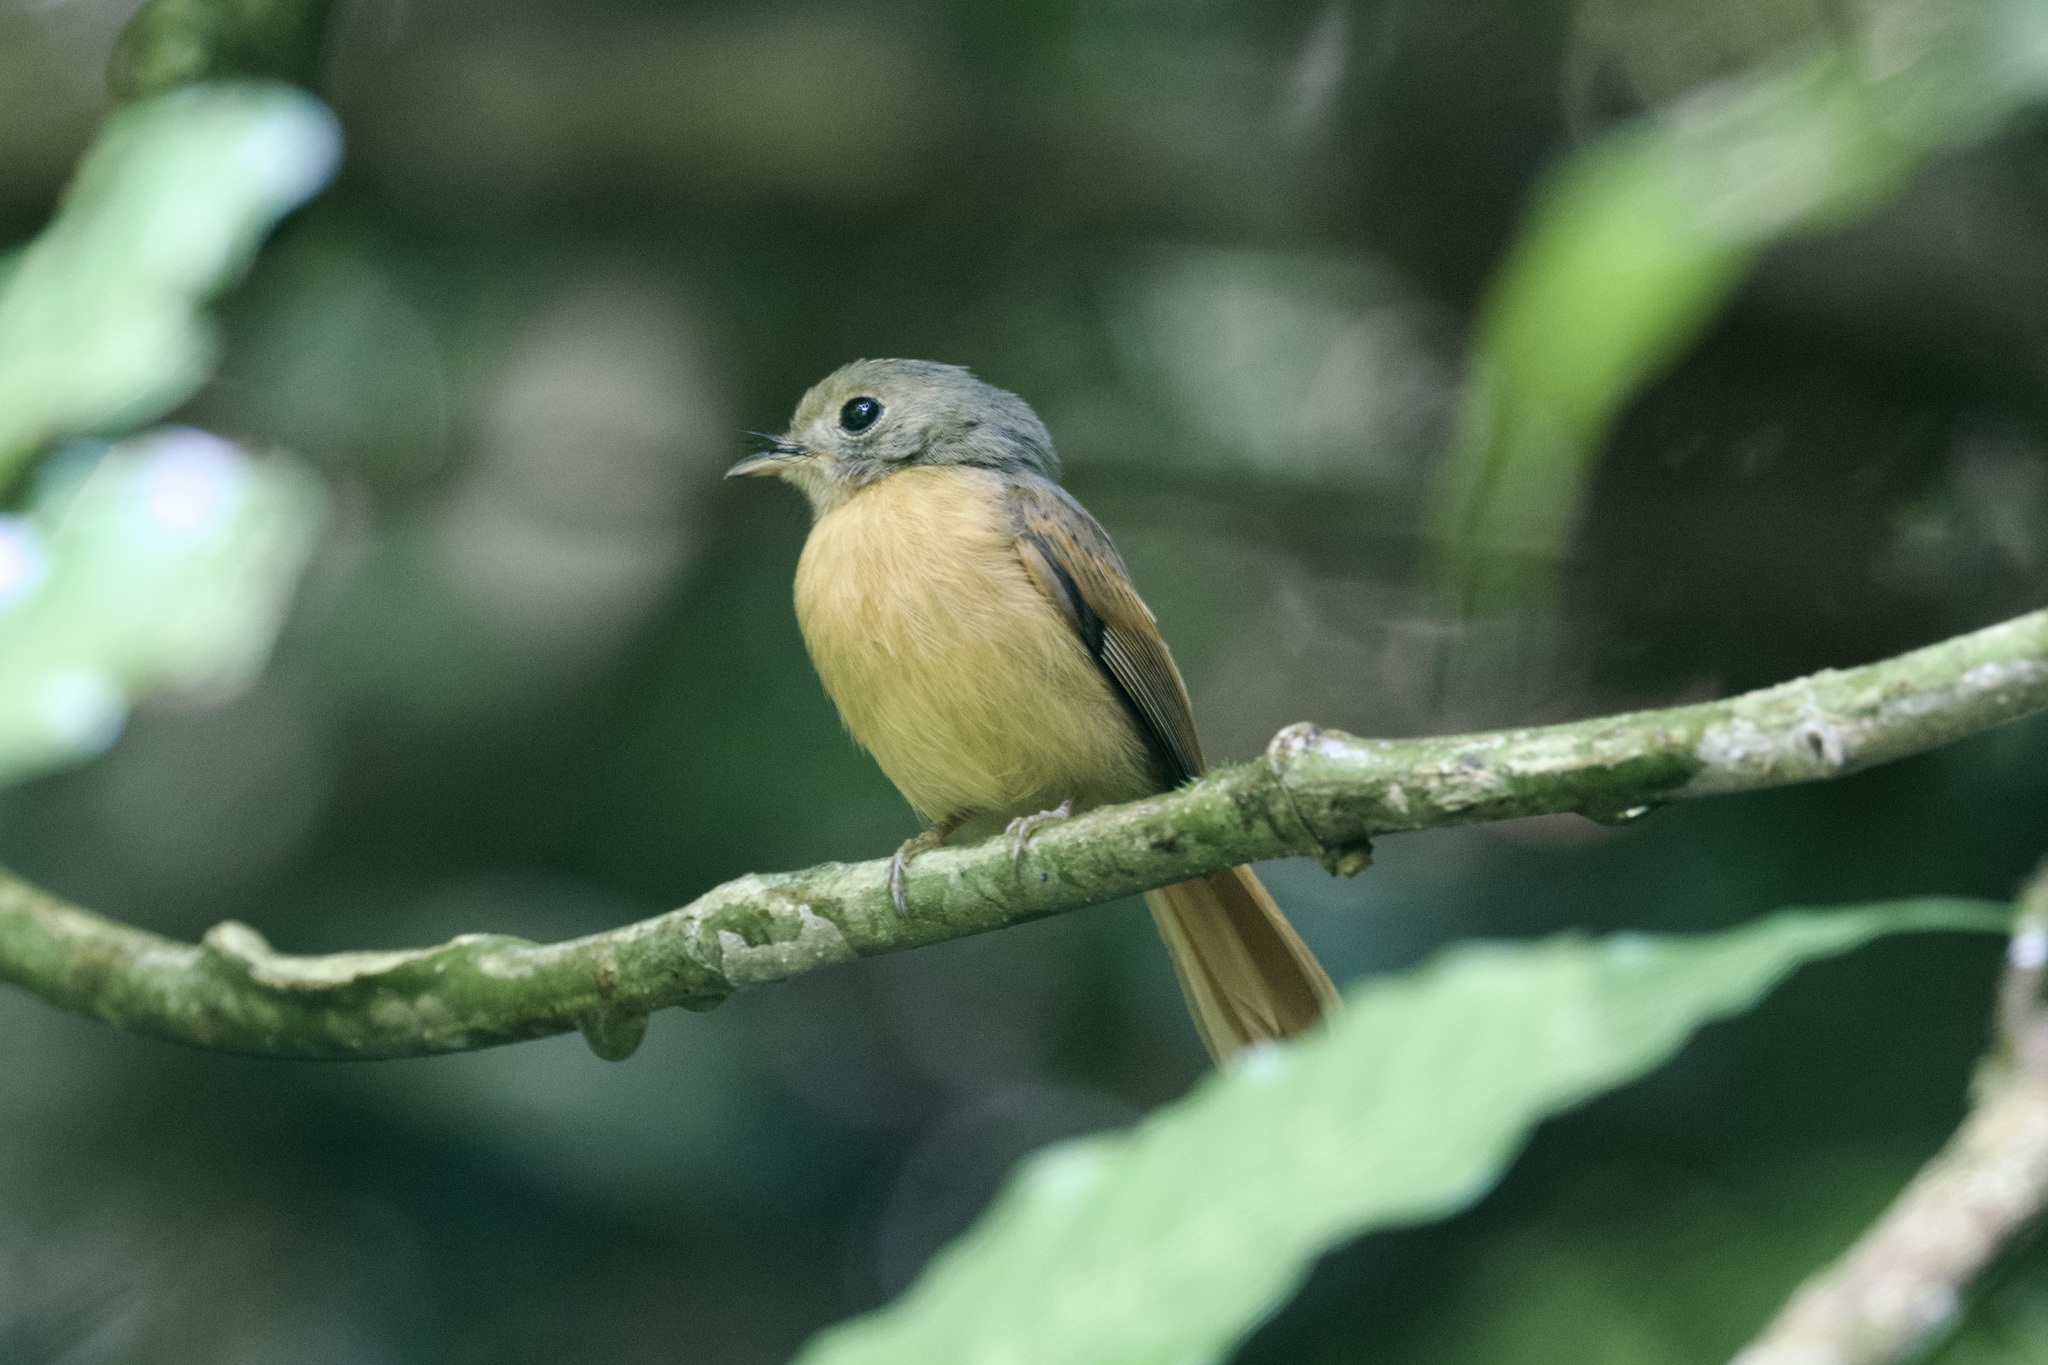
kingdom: Animalia
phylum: Chordata
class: Aves
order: Passeriformes
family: Tyrannidae
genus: Terenotriccus
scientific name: Terenotriccus erythrurus
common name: Ruddy-tailed flycatcher
